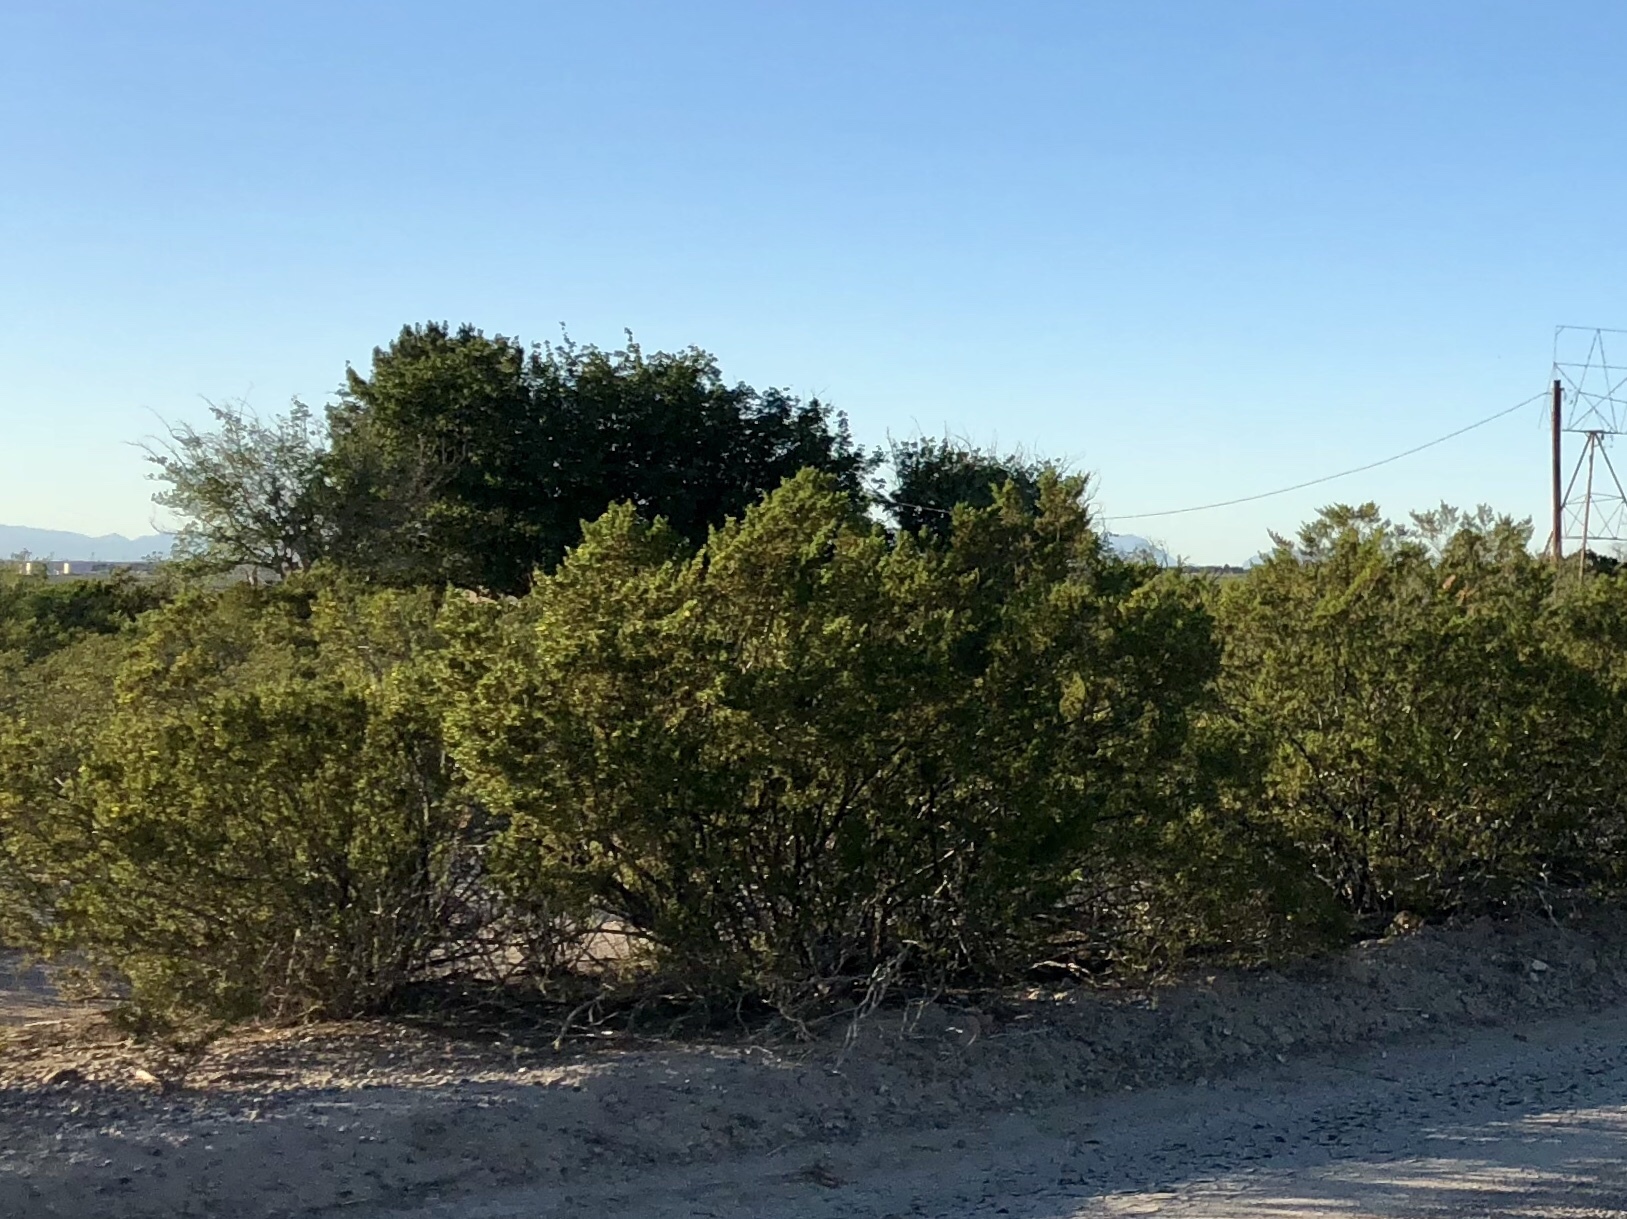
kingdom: Plantae
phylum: Tracheophyta
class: Magnoliopsida
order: Zygophyllales
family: Zygophyllaceae
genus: Larrea
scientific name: Larrea tridentata
